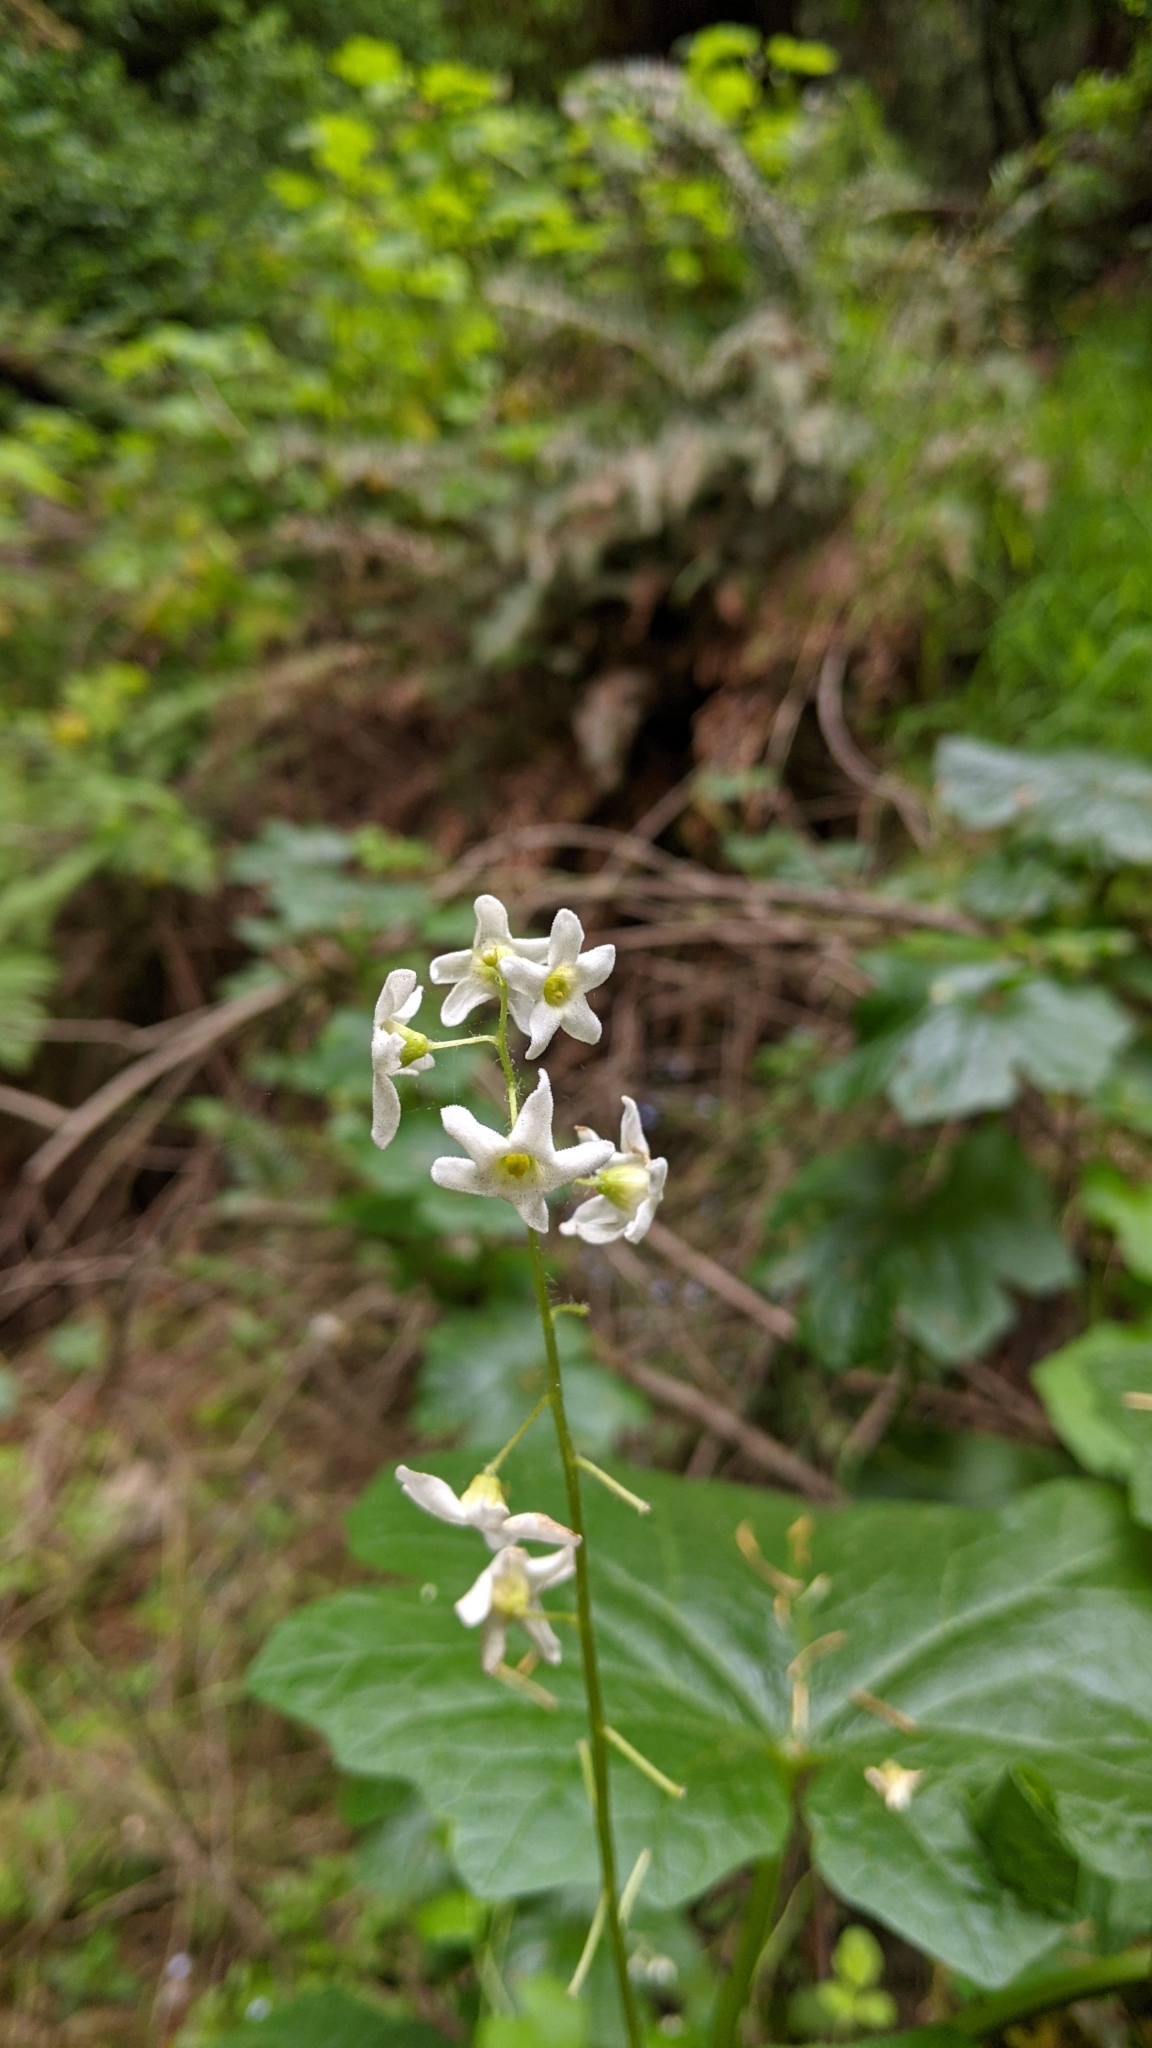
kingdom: Plantae
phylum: Tracheophyta
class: Magnoliopsida
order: Cucurbitales
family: Cucurbitaceae
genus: Marah
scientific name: Marah oregana
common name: Coastal manroot
